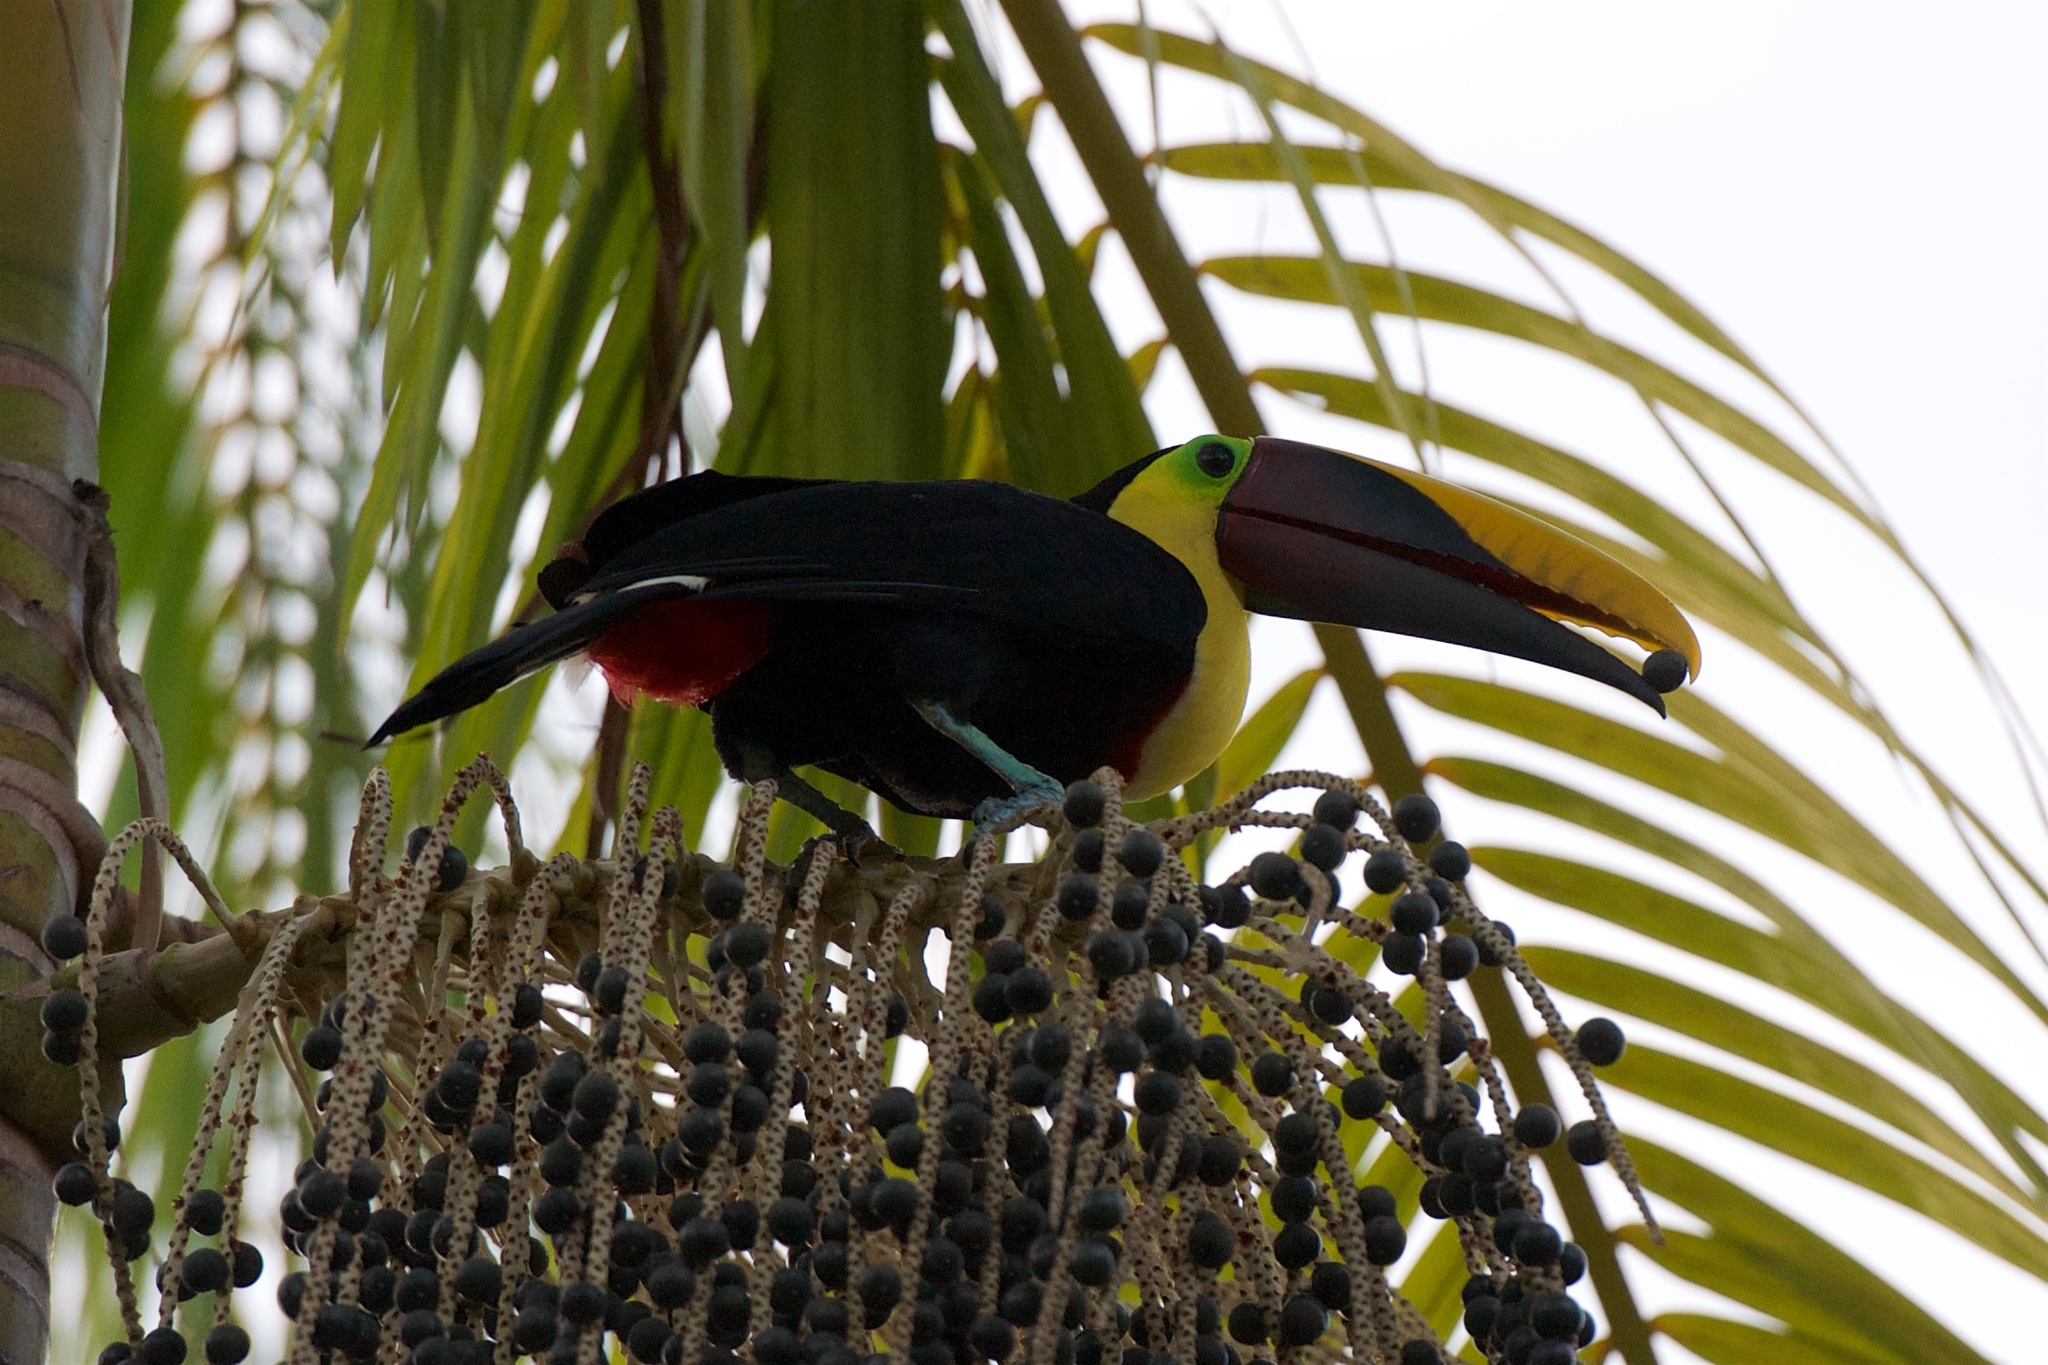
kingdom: Animalia
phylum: Chordata
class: Aves
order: Piciformes
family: Ramphastidae
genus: Ramphastos
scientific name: Ramphastos ambiguus
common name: Yellow-throated toucan
